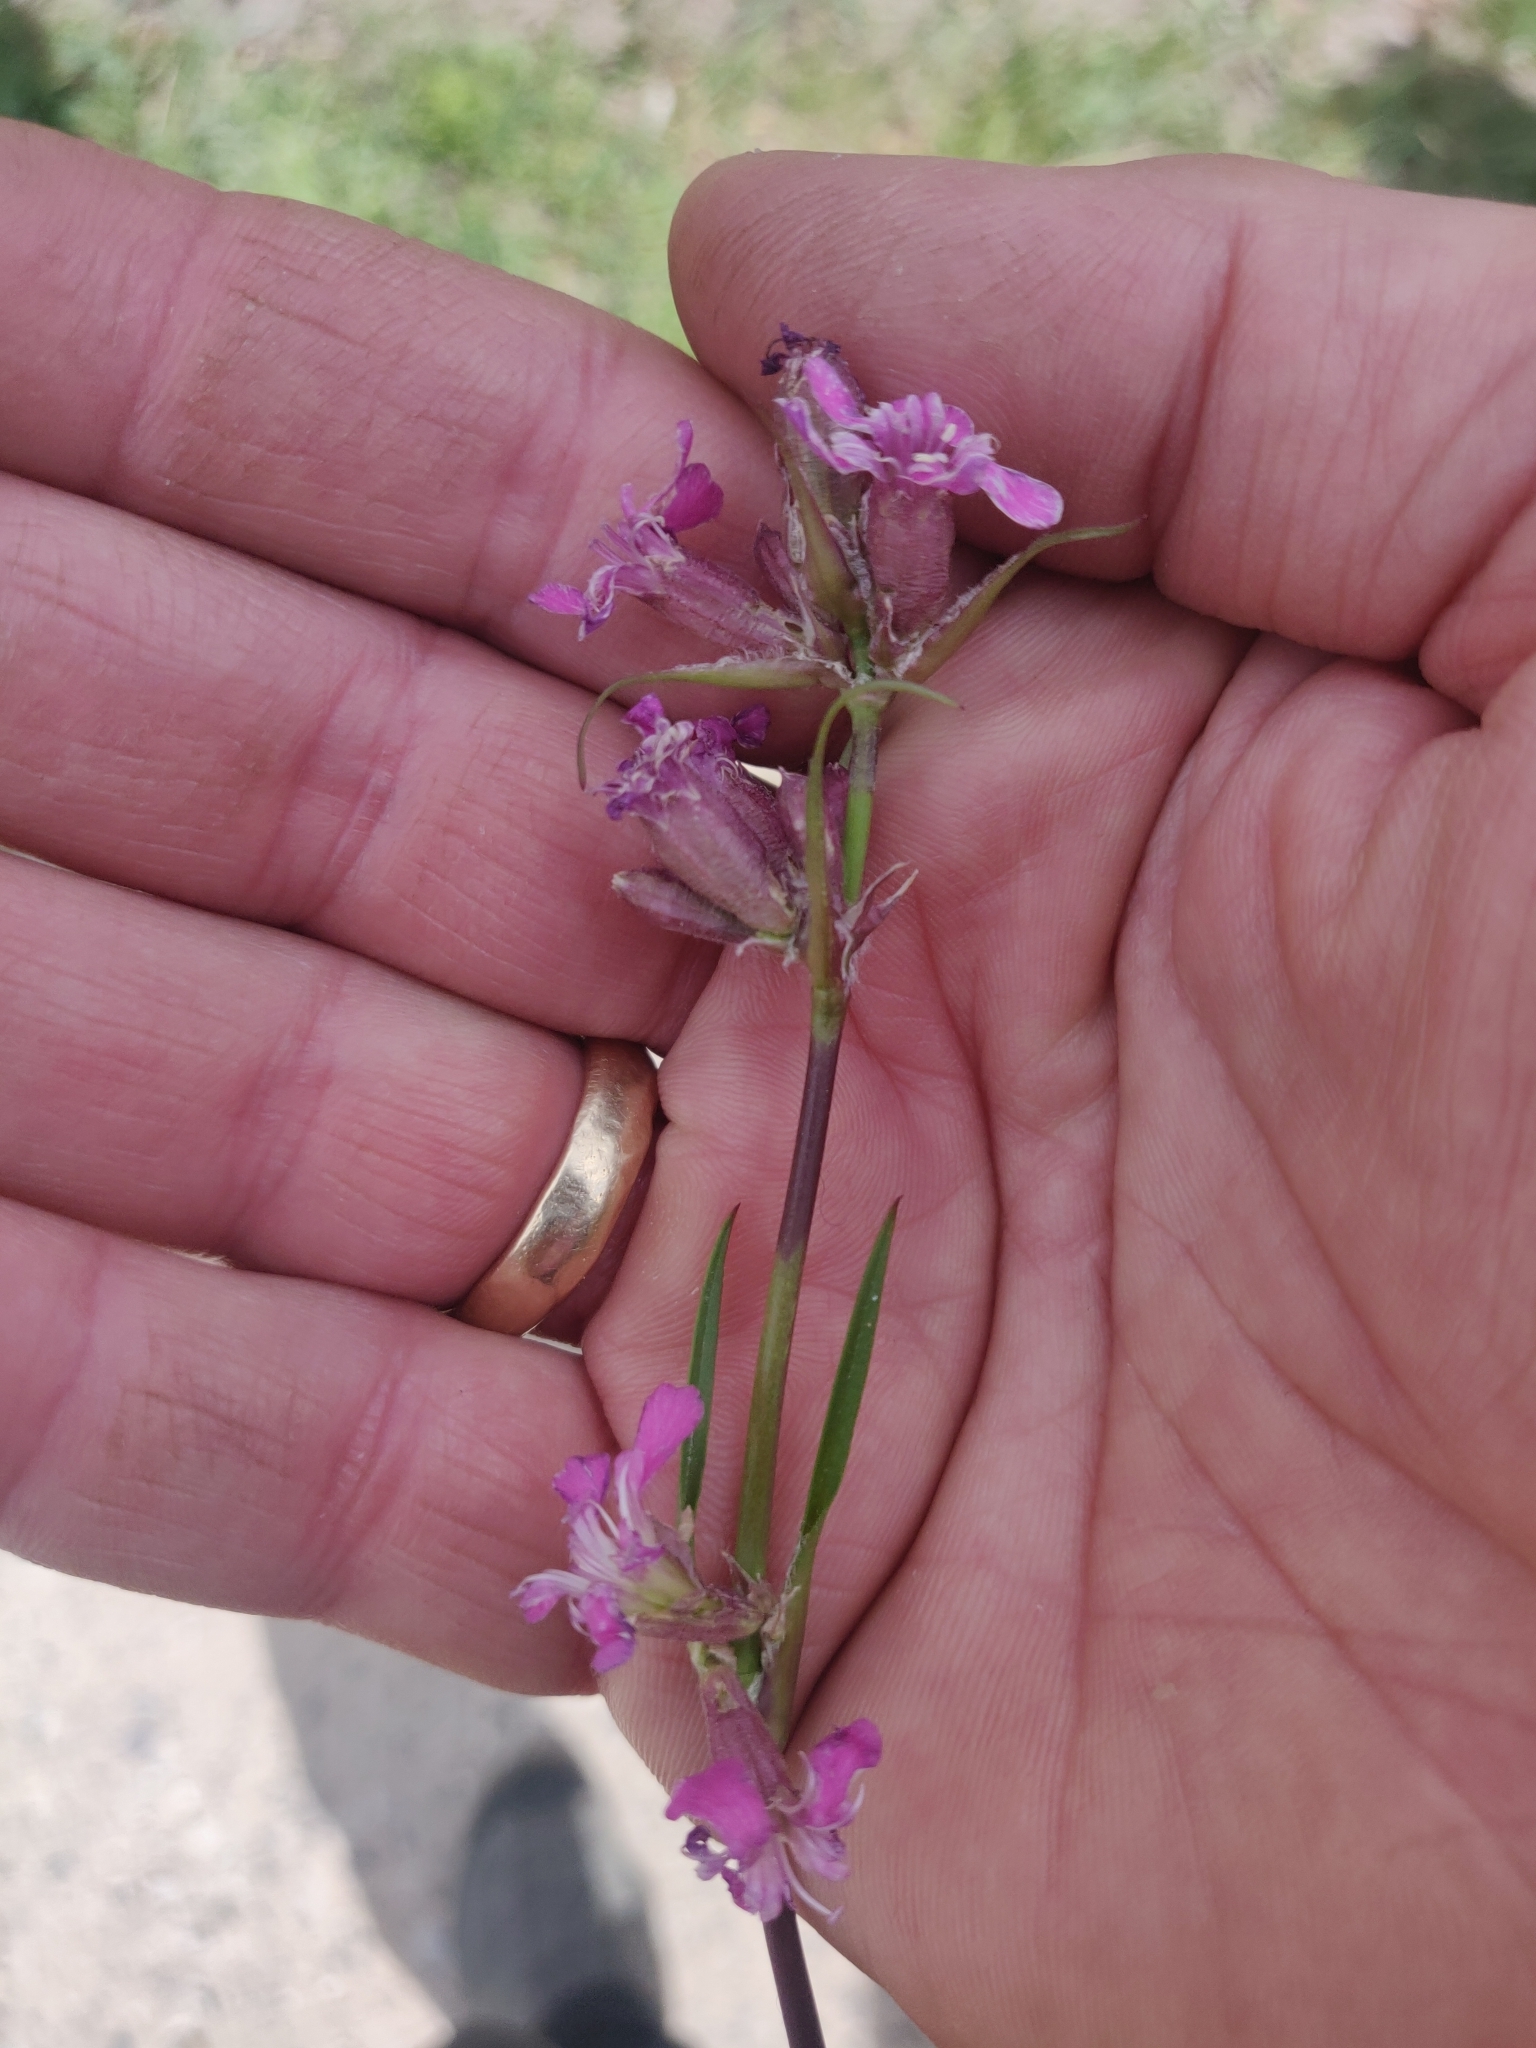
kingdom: Plantae
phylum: Tracheophyta
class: Magnoliopsida
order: Caryophyllales
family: Caryophyllaceae
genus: Viscaria
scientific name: Viscaria vulgaris
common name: Clammy campion
